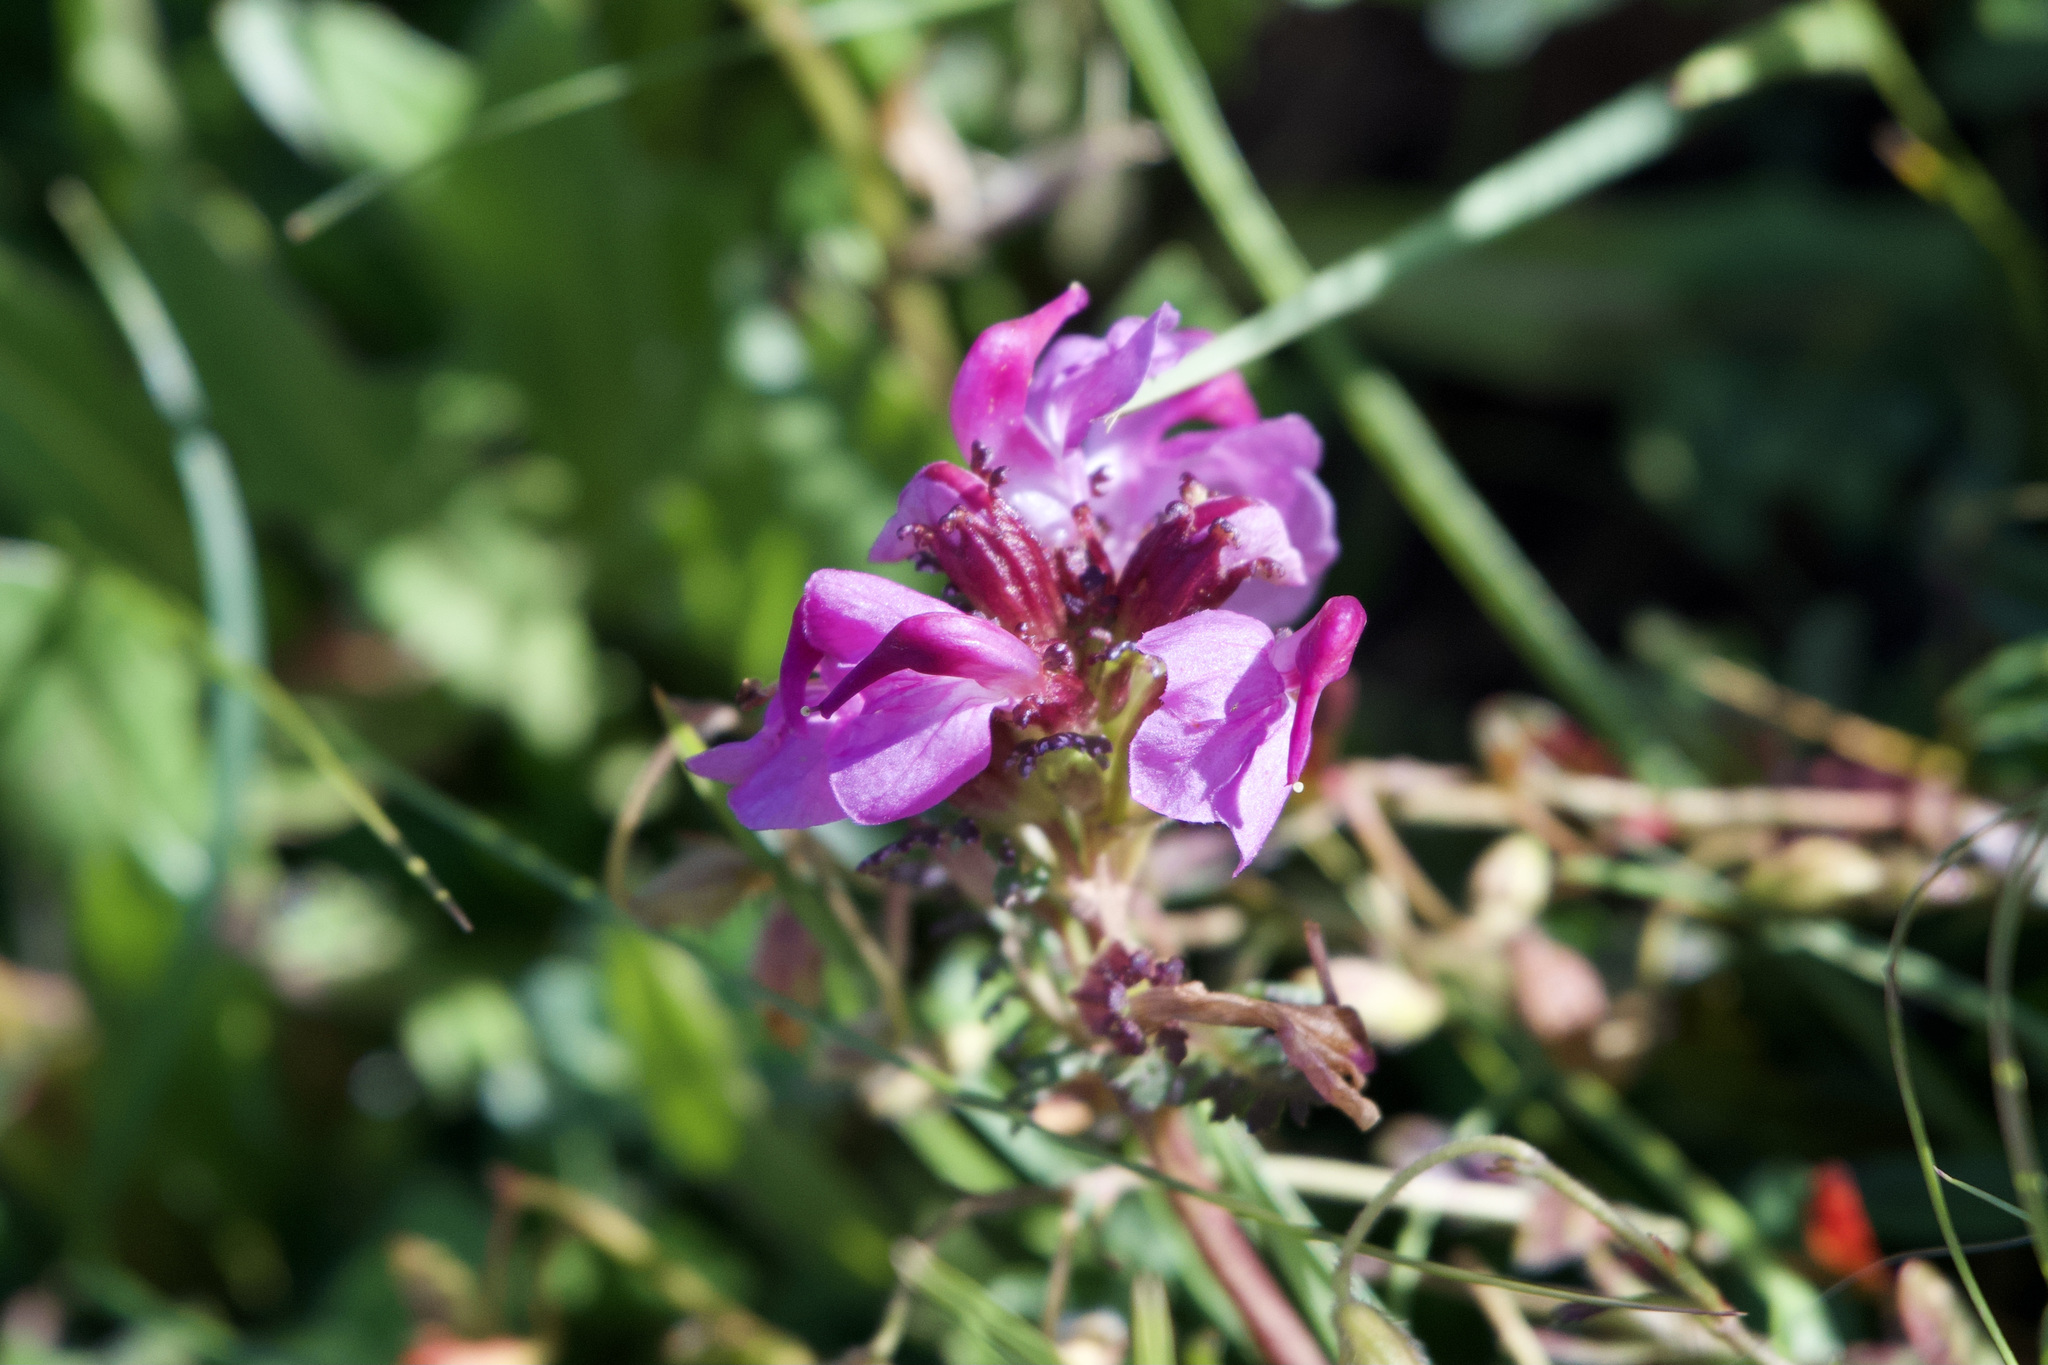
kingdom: Plantae
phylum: Tracheophyta
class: Magnoliopsida
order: Lamiales
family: Orobanchaceae
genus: Pedicularis
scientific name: Pedicularis rostratocapitata
